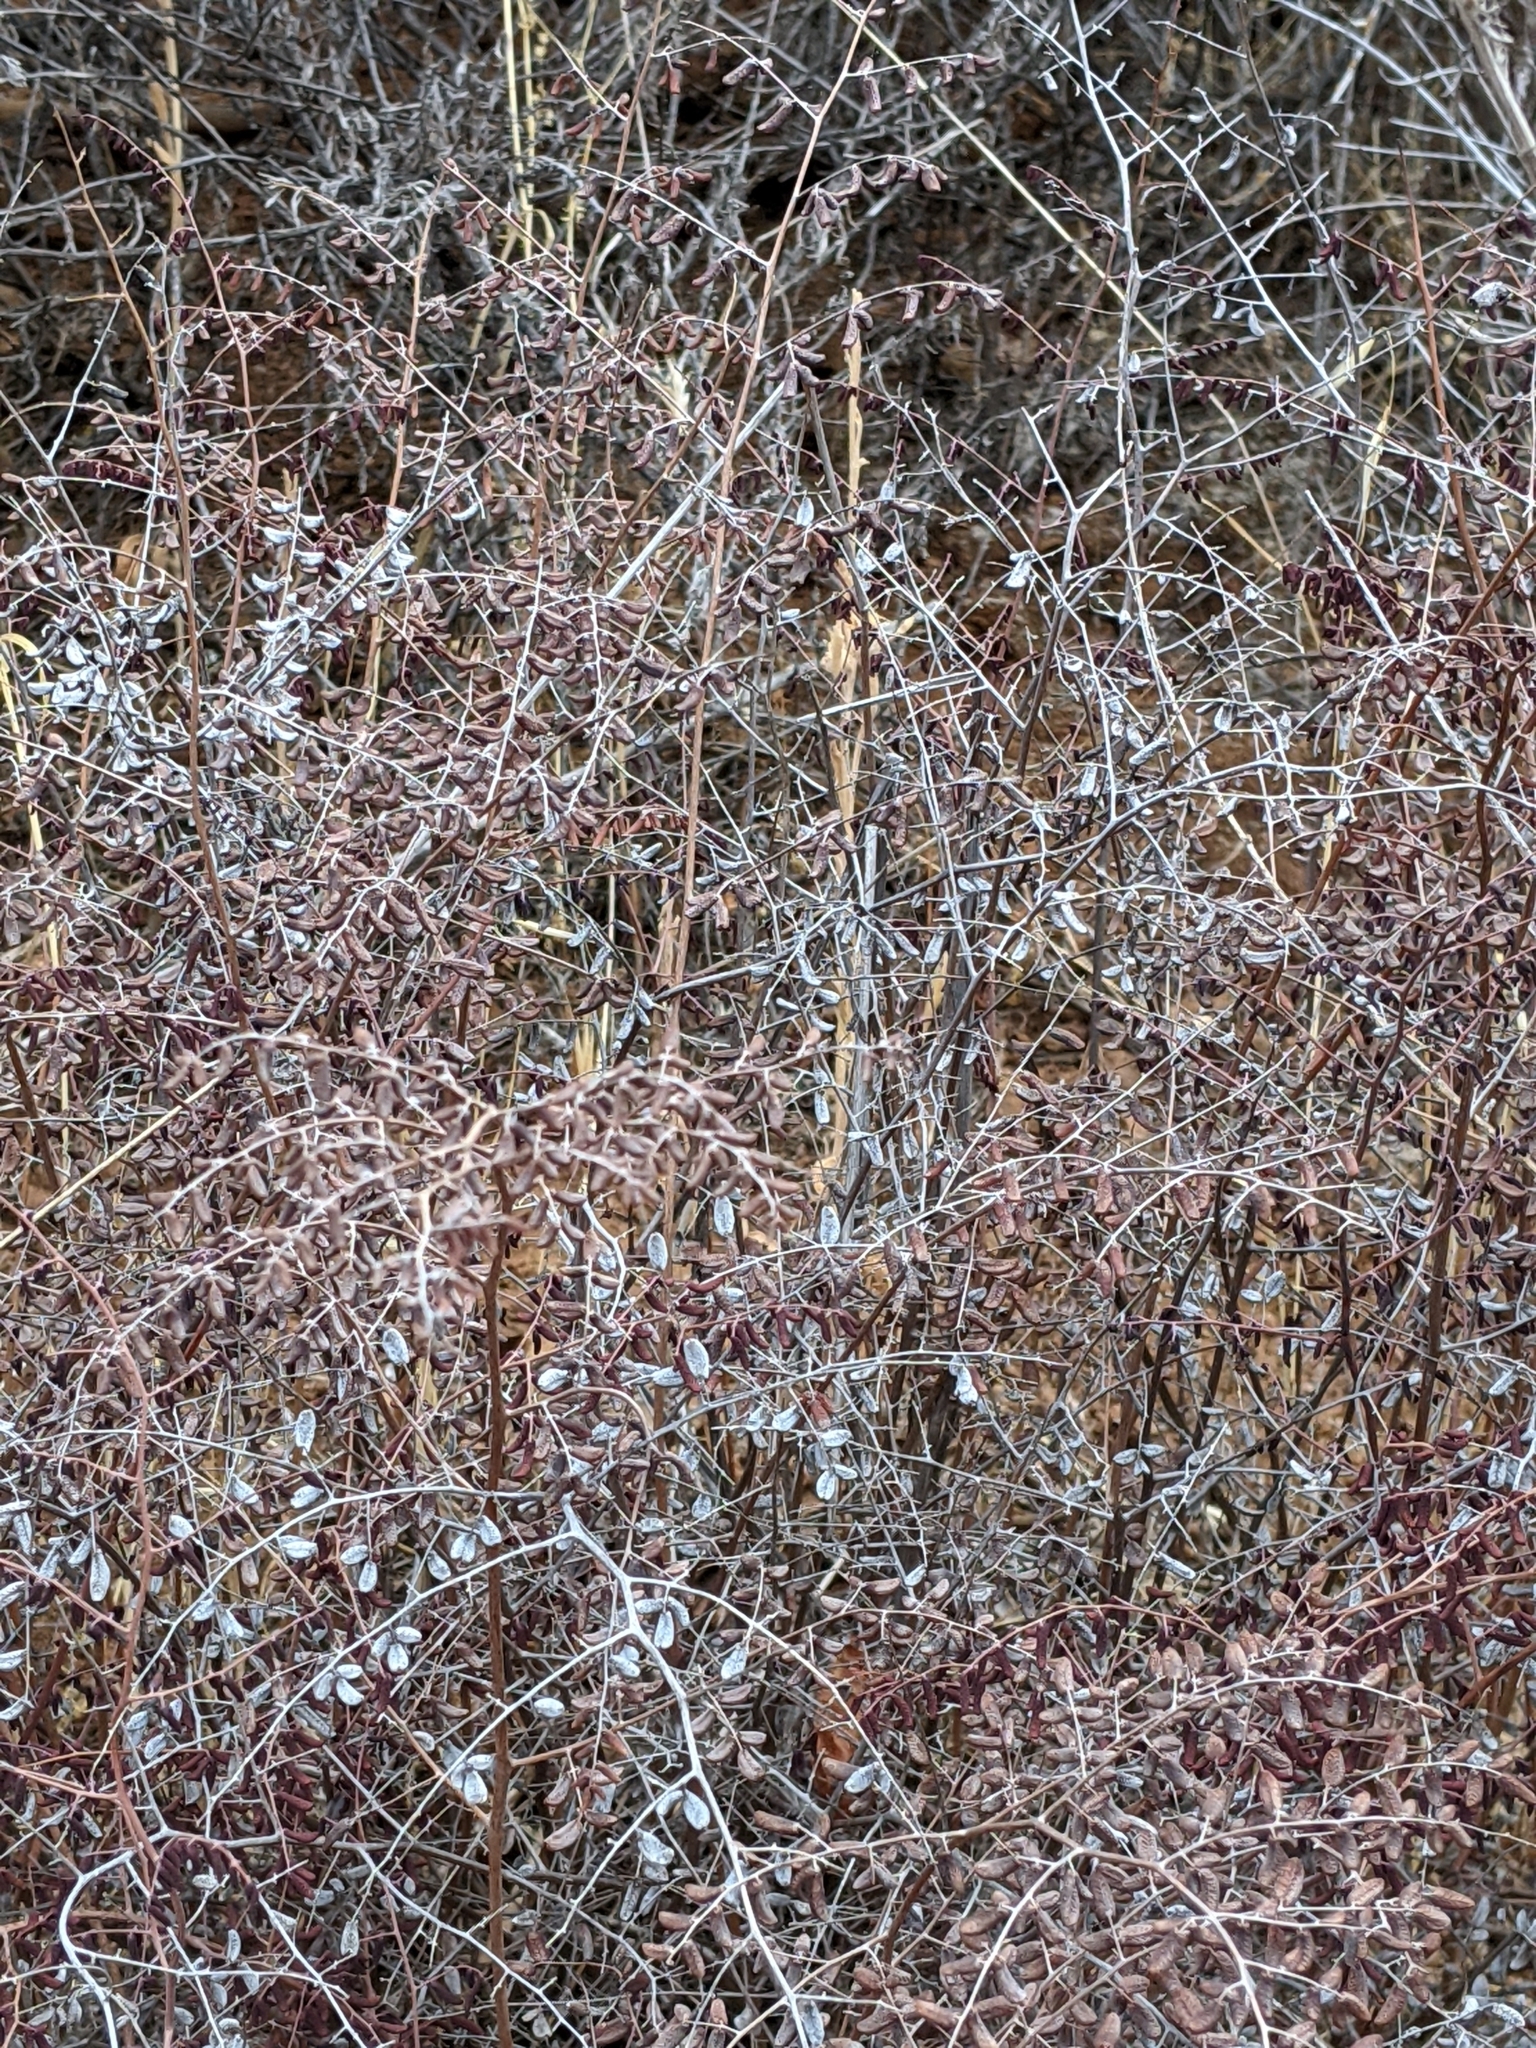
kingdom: Plantae
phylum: Tracheophyta
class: Polypodiopsida
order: Polypodiales
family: Pteridaceae
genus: Pellaea
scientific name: Pellaea andromedifolia
